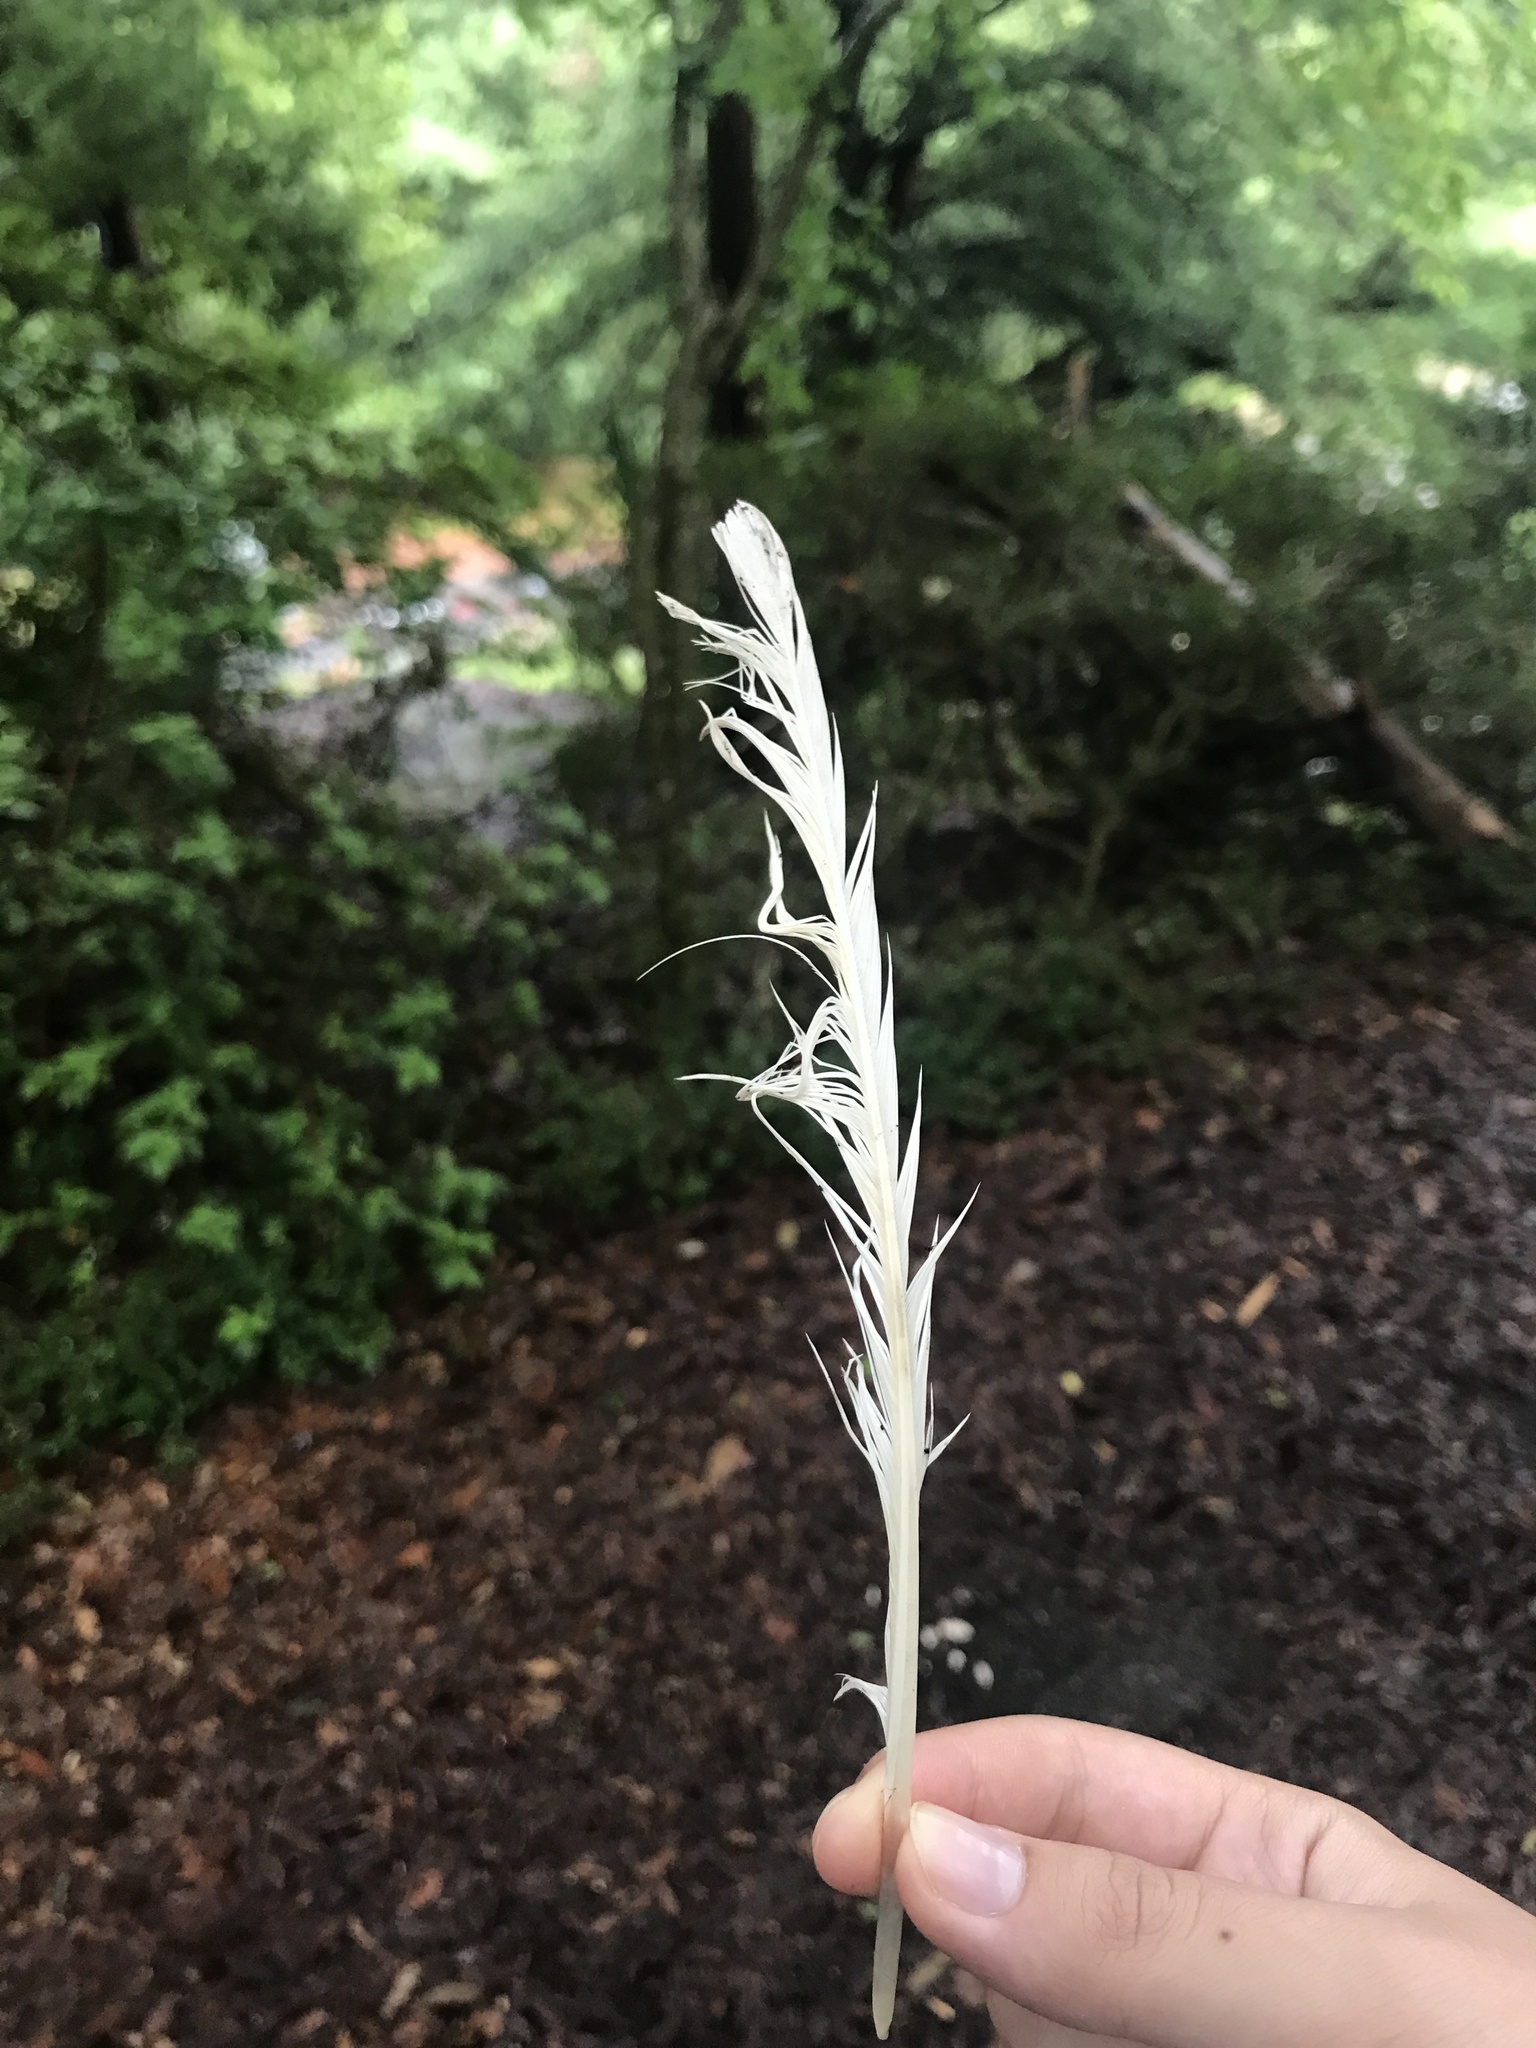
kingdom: Animalia
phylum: Chordata
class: Aves
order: Pelecaniformes
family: Ardeidae
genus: Egretta
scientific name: Egretta thula
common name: Snowy egret
